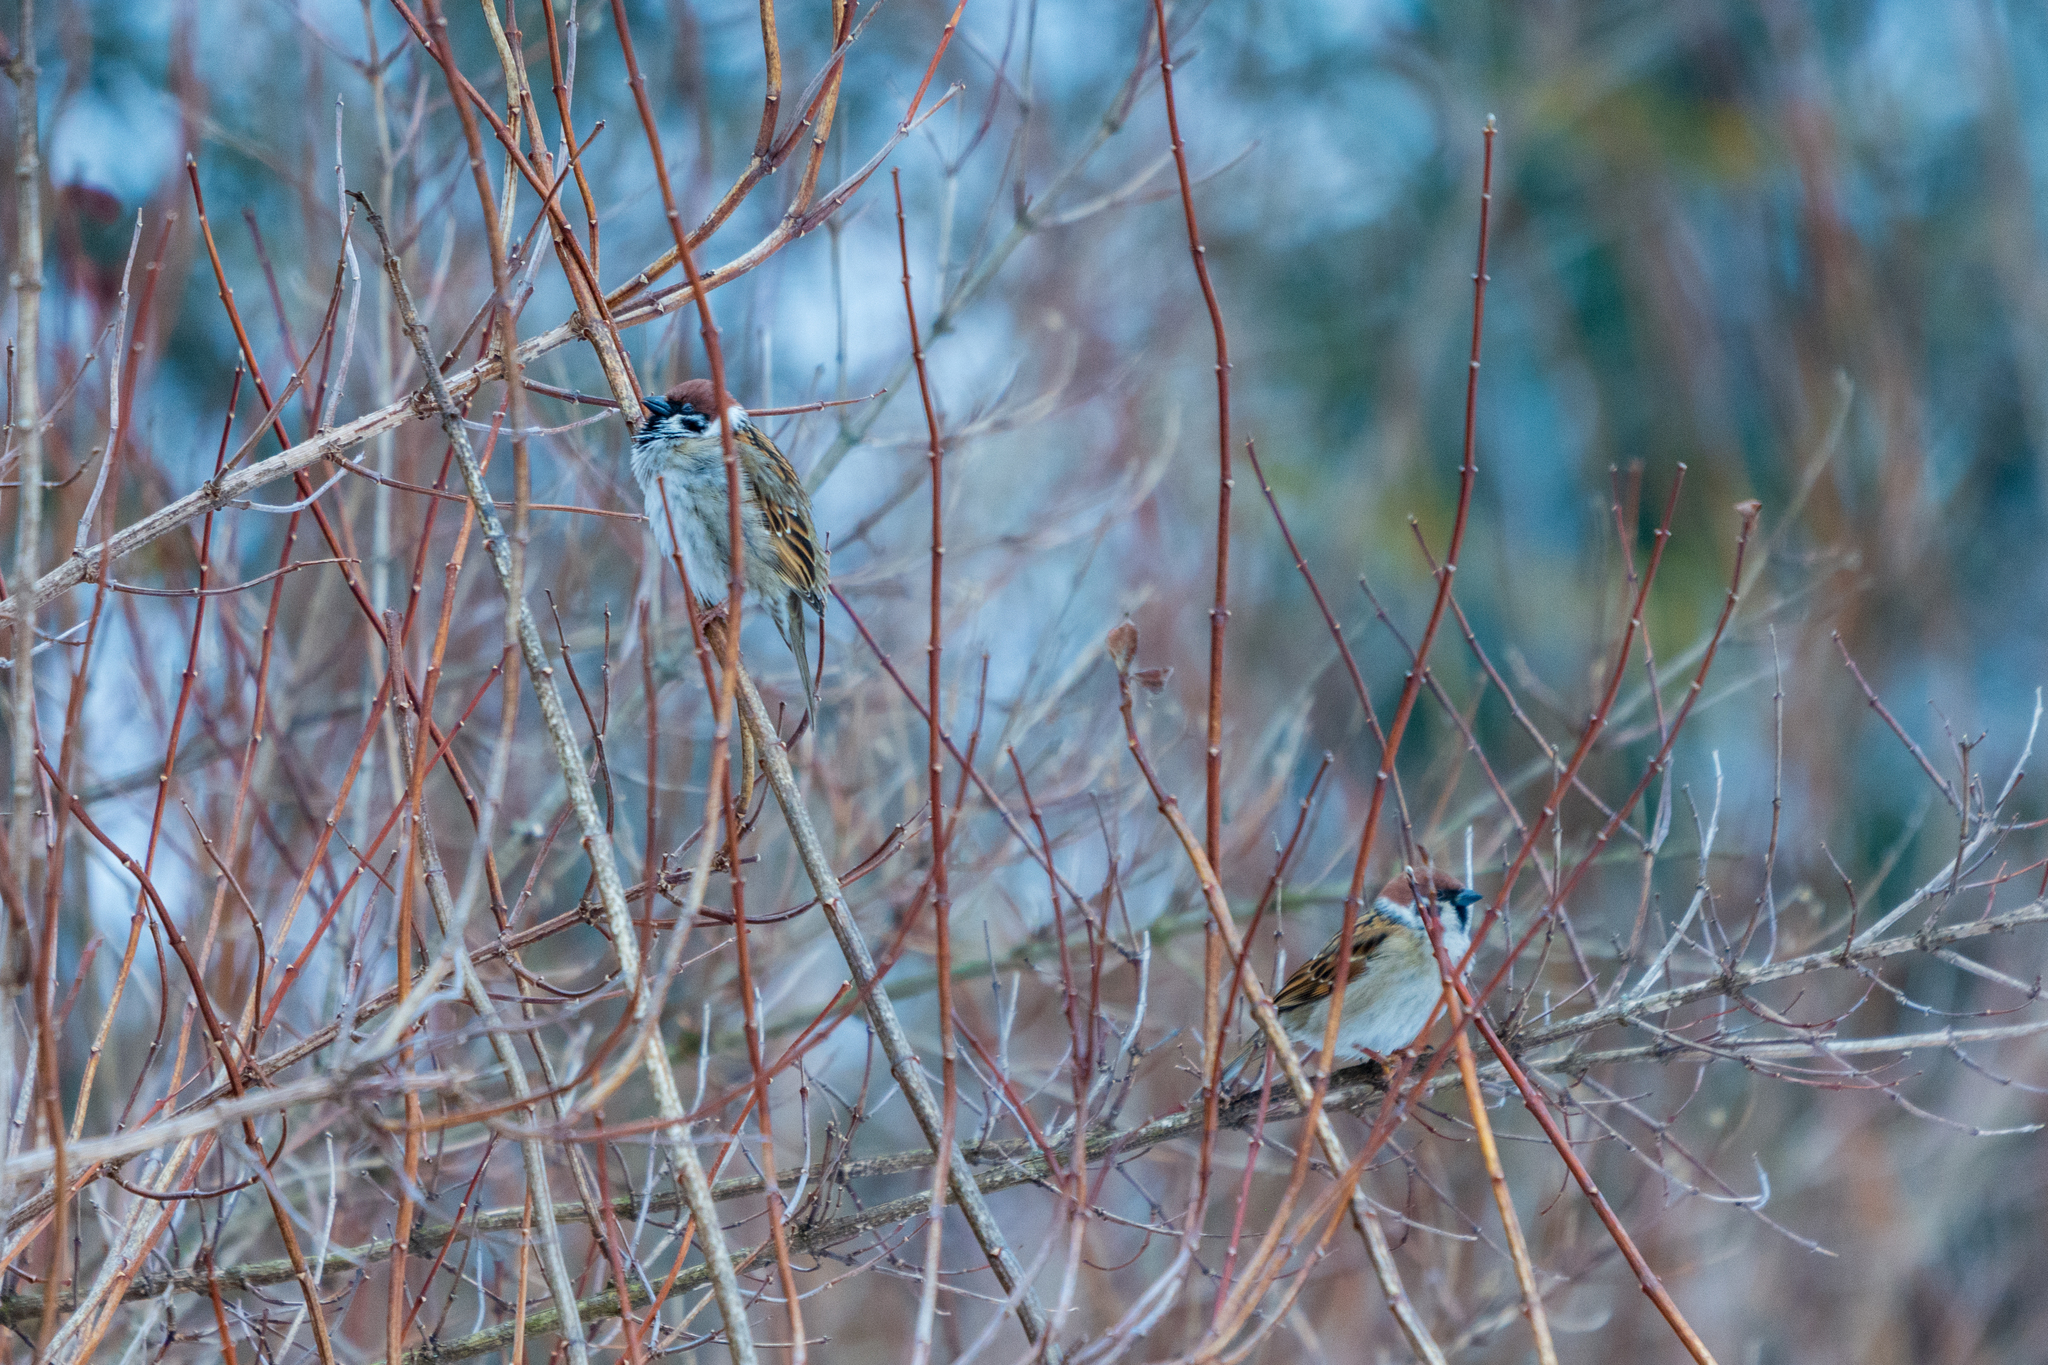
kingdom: Animalia
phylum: Chordata
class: Aves
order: Passeriformes
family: Passeridae
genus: Passer
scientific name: Passer montanus
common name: Eurasian tree sparrow
